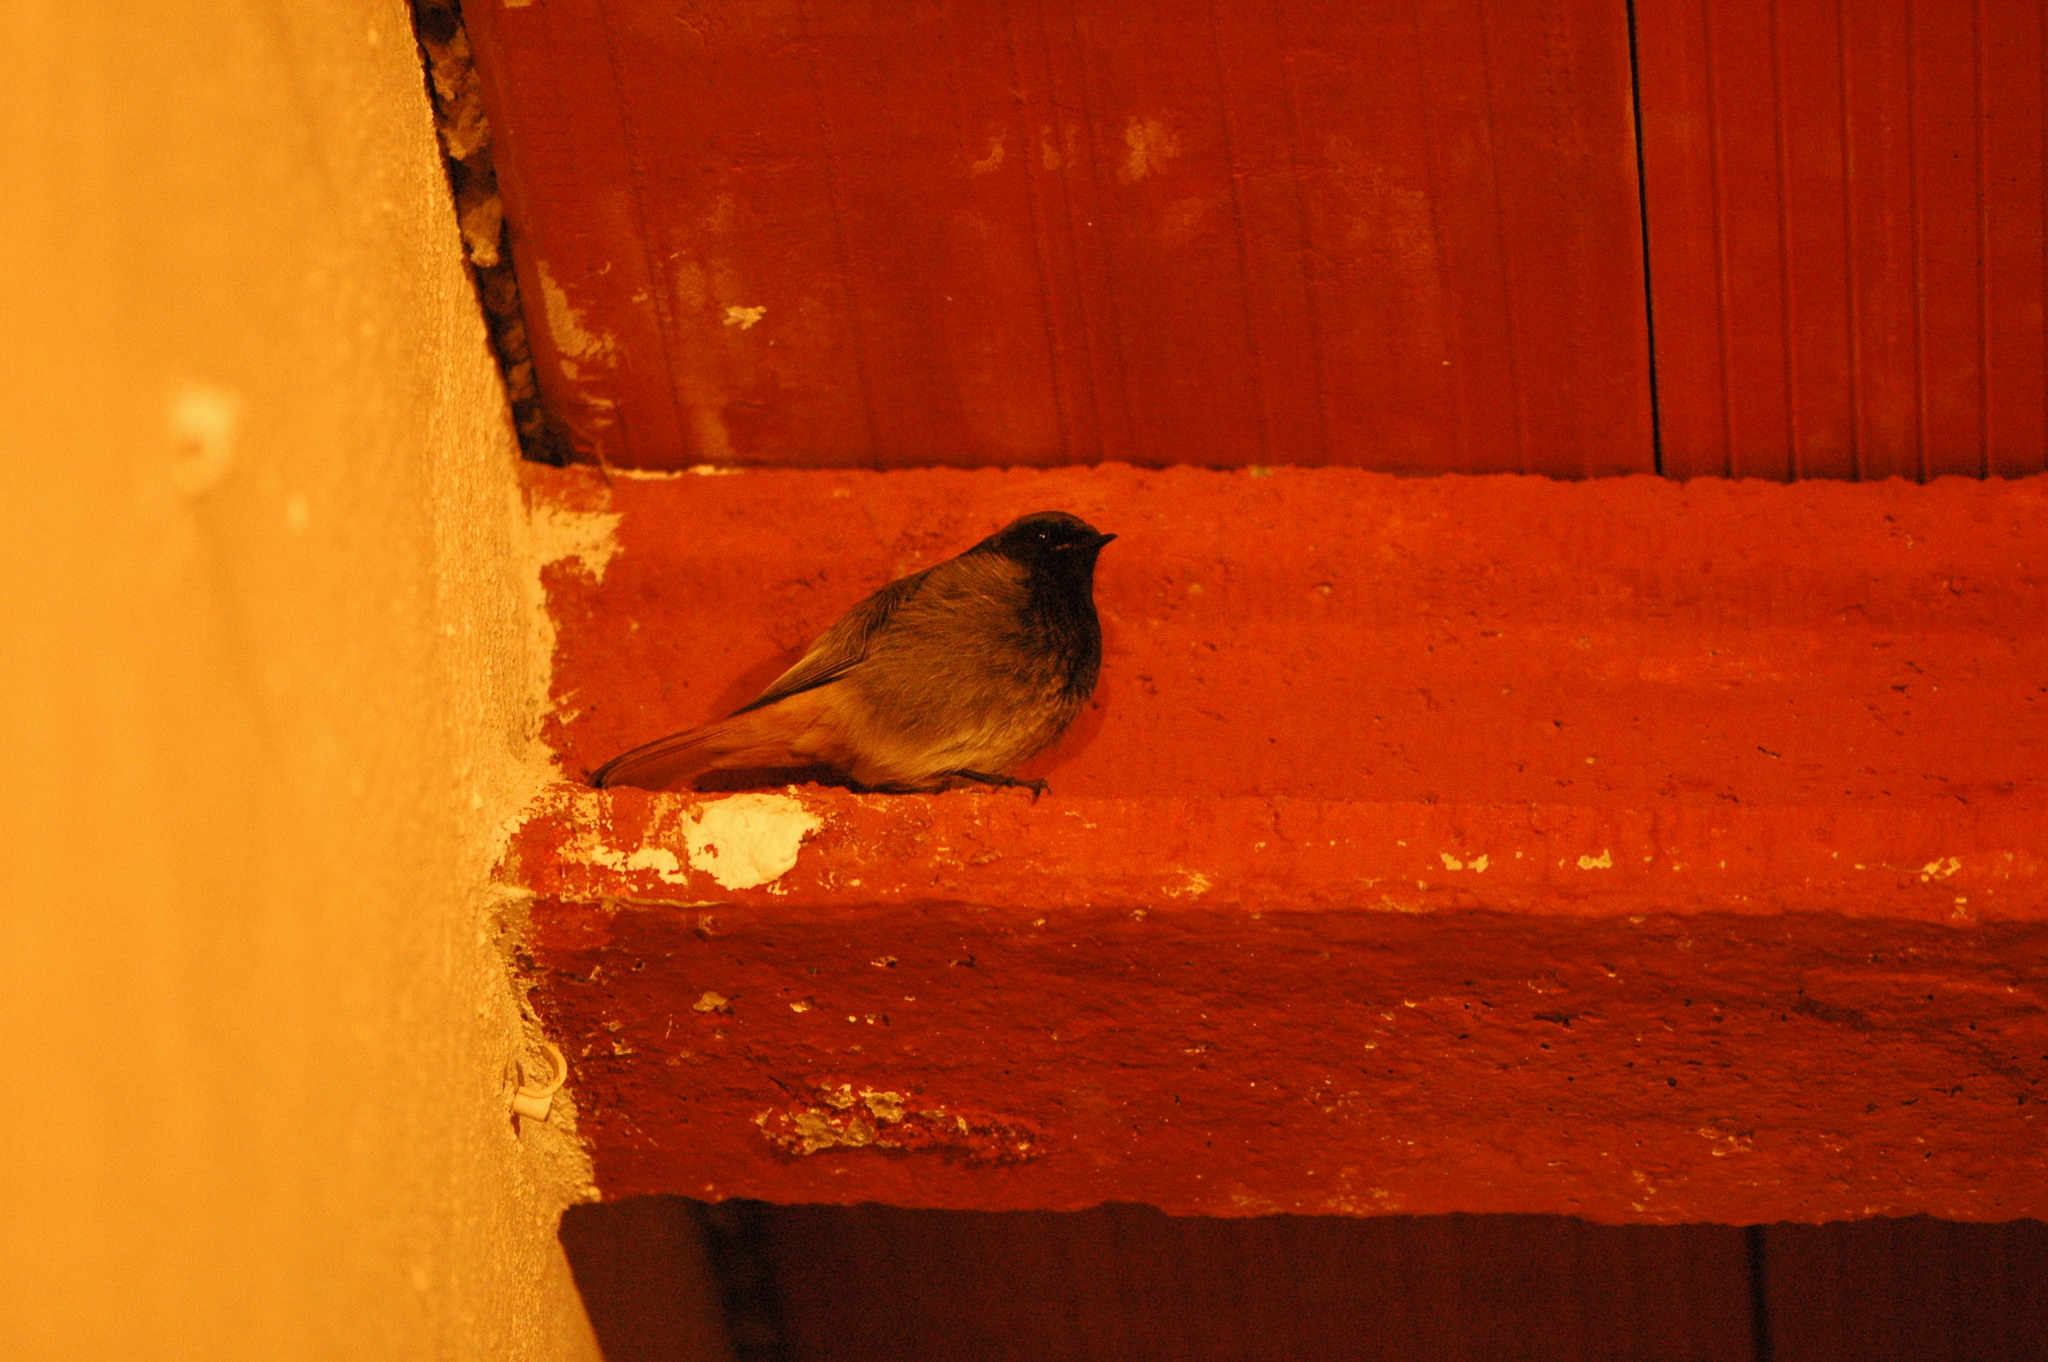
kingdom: Animalia
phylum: Chordata
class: Aves
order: Passeriformes
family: Muscicapidae
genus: Phoenicurus
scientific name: Phoenicurus ochruros
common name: Black redstart
